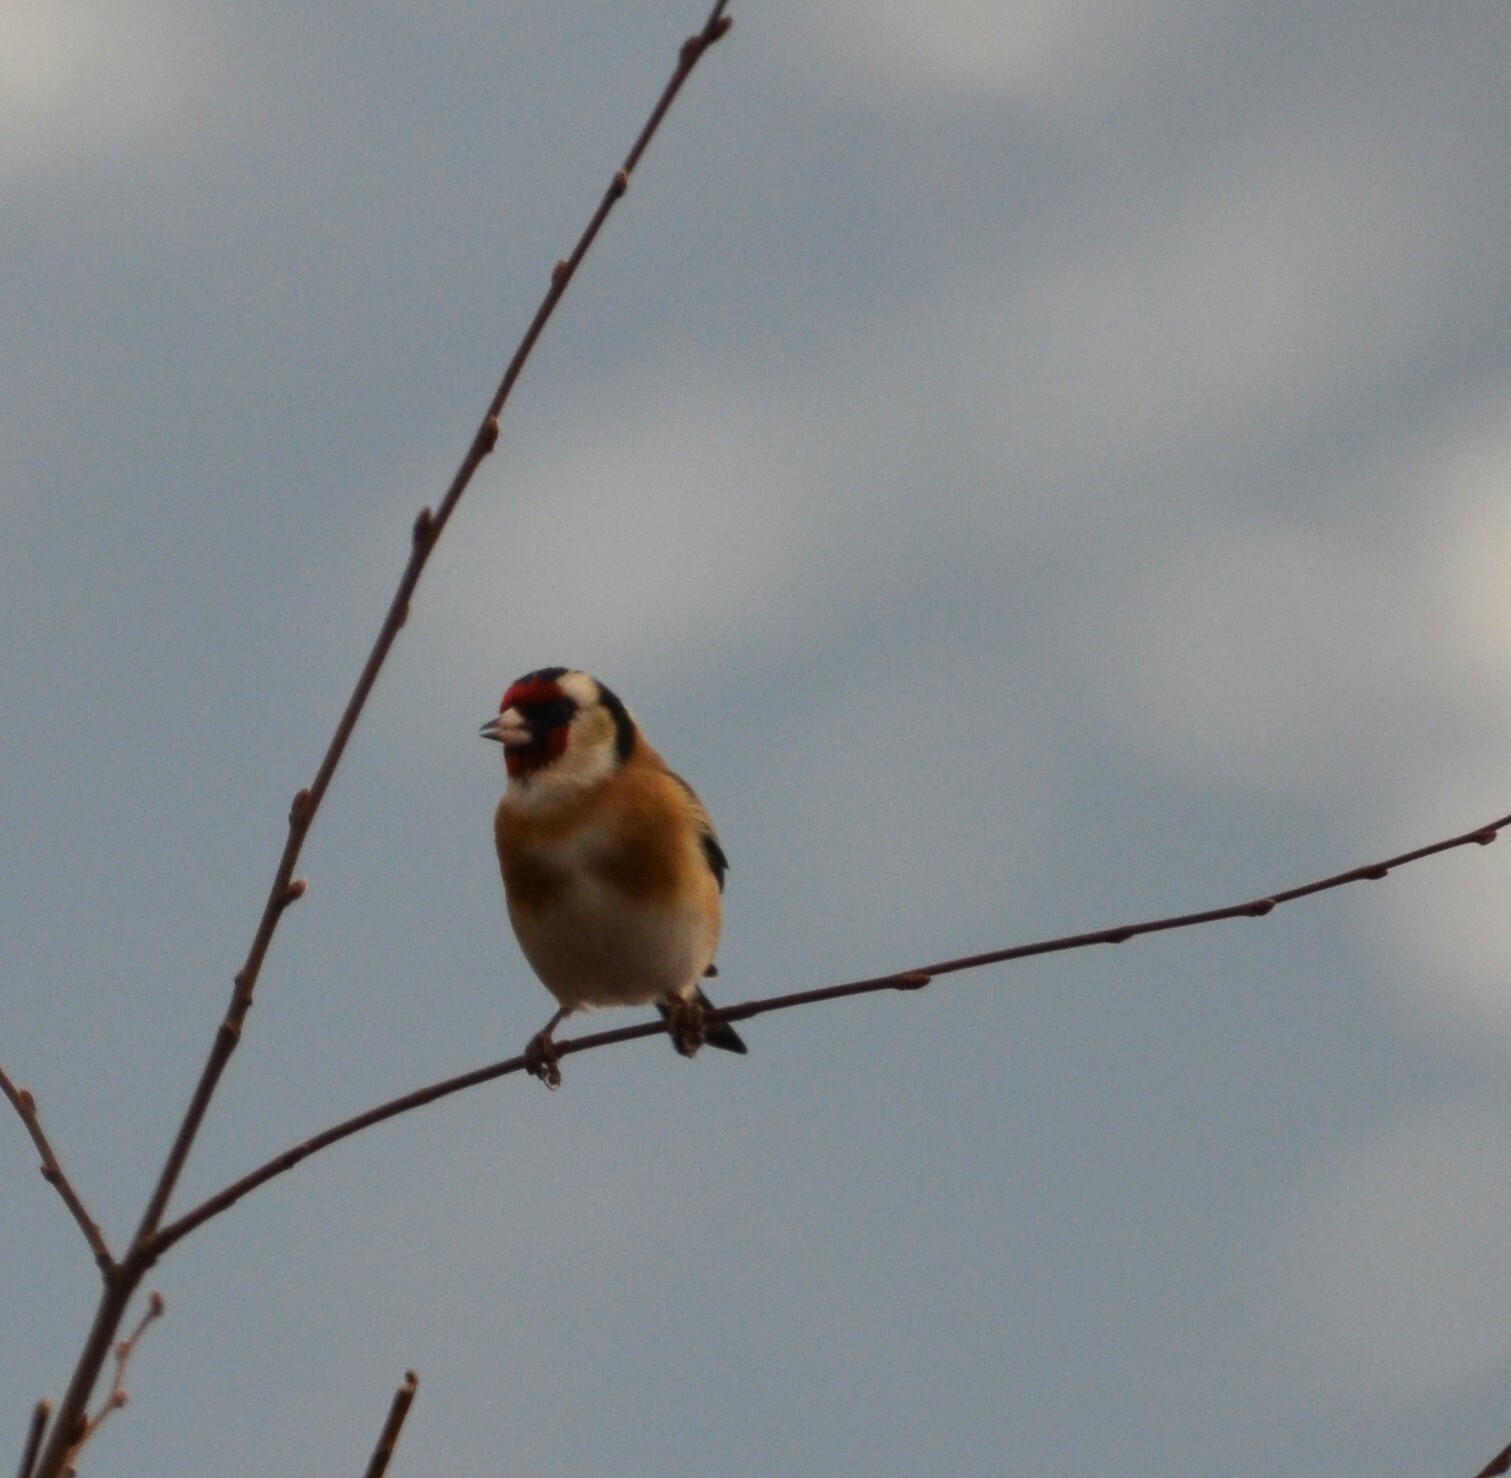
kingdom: Animalia
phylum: Chordata
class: Aves
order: Passeriformes
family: Fringillidae
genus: Carduelis
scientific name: Carduelis carduelis
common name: European goldfinch
